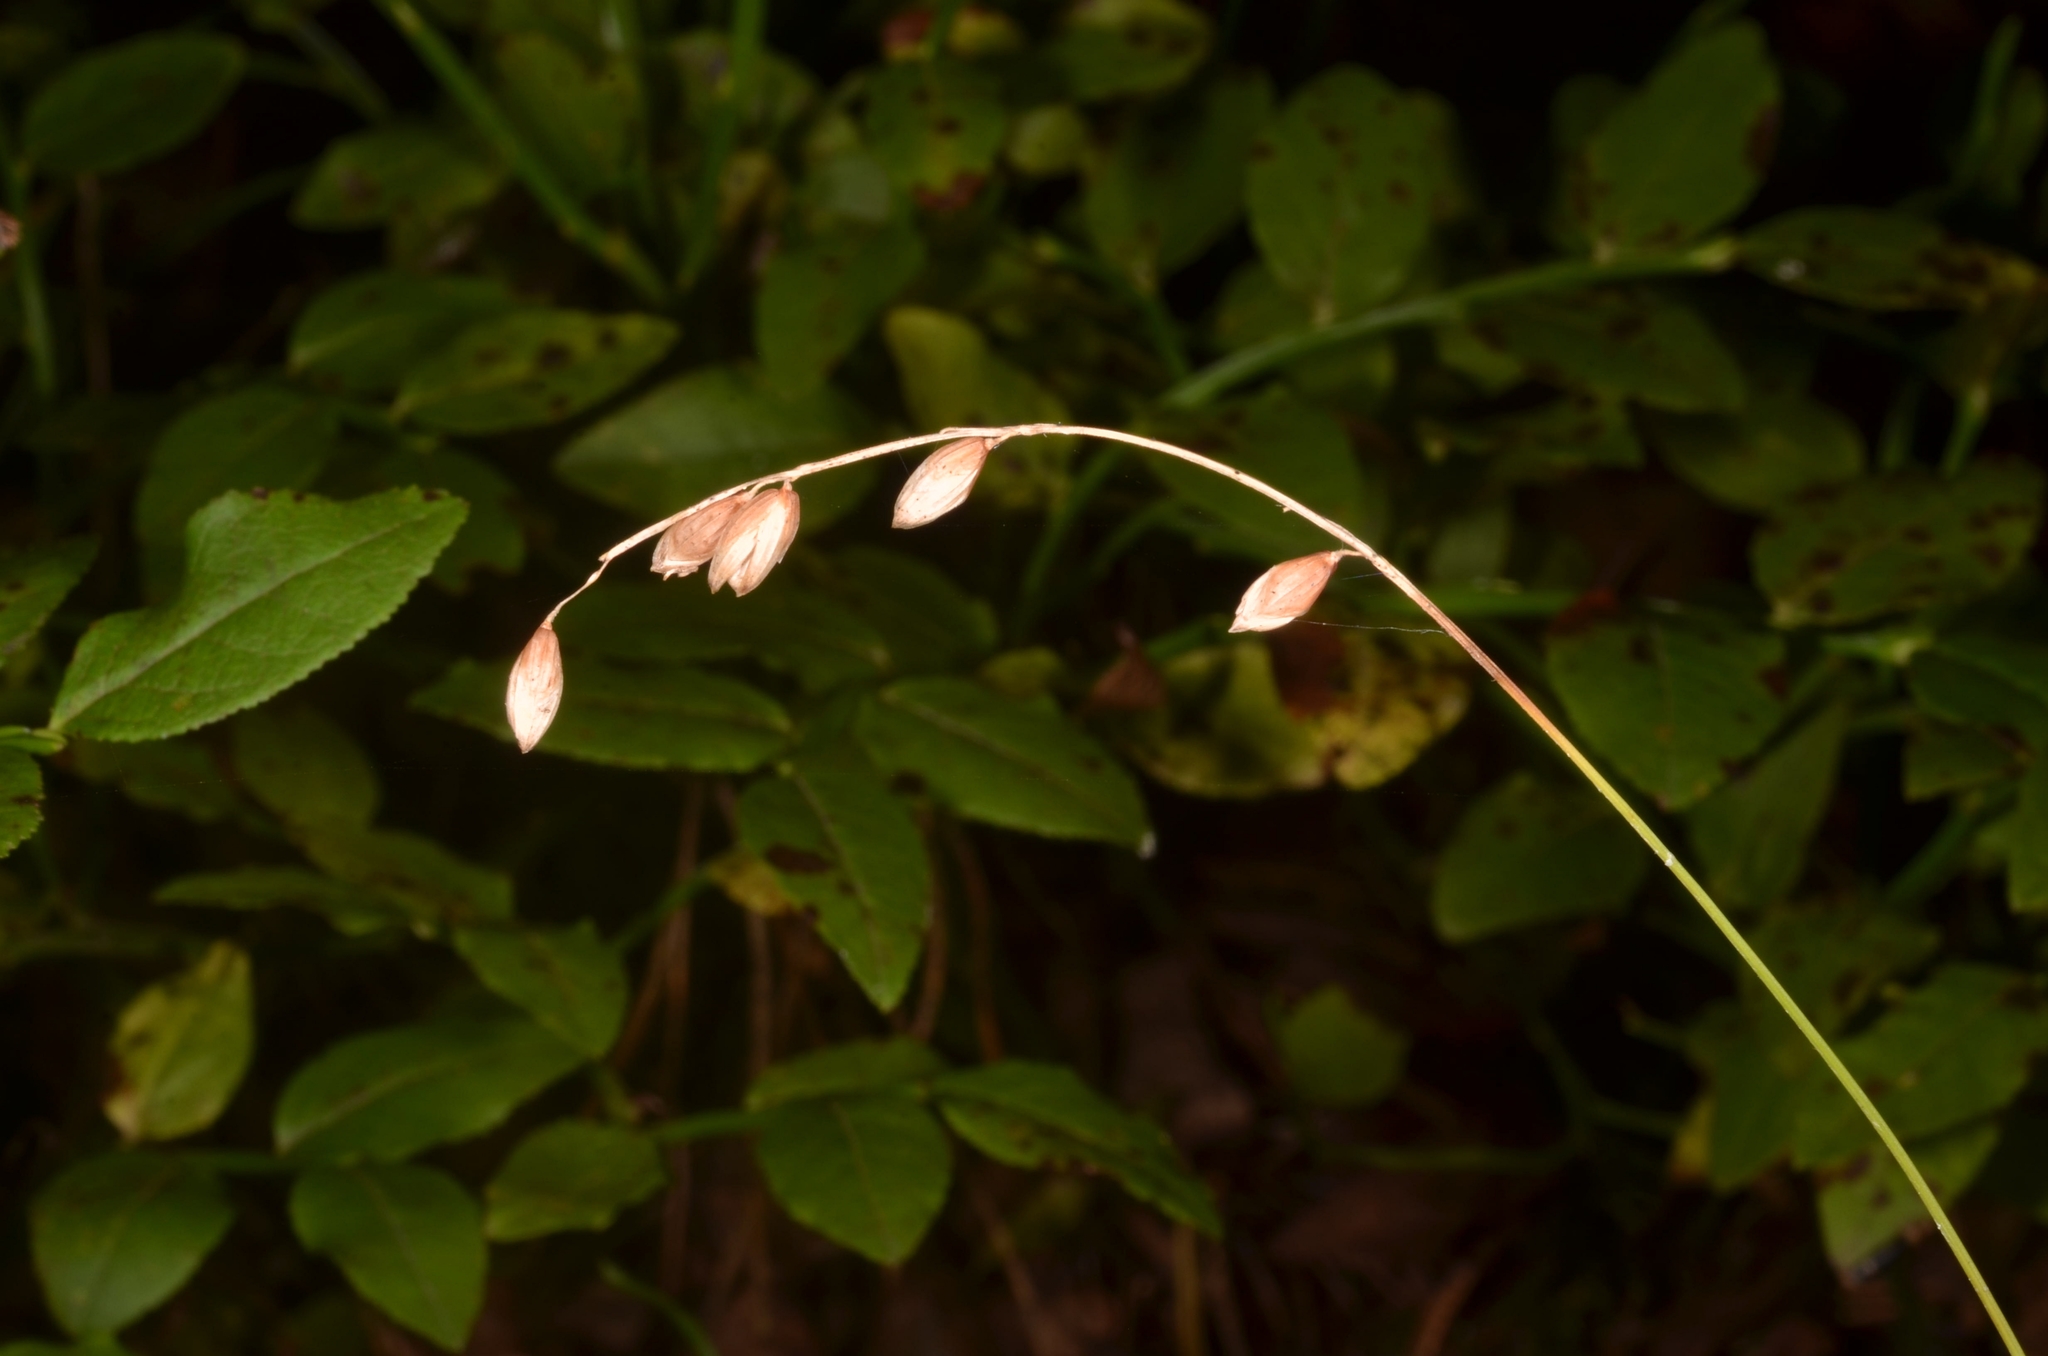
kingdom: Plantae
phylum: Tracheophyta
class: Liliopsida
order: Poales
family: Poaceae
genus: Melica
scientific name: Melica nutans
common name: Mountain melick
